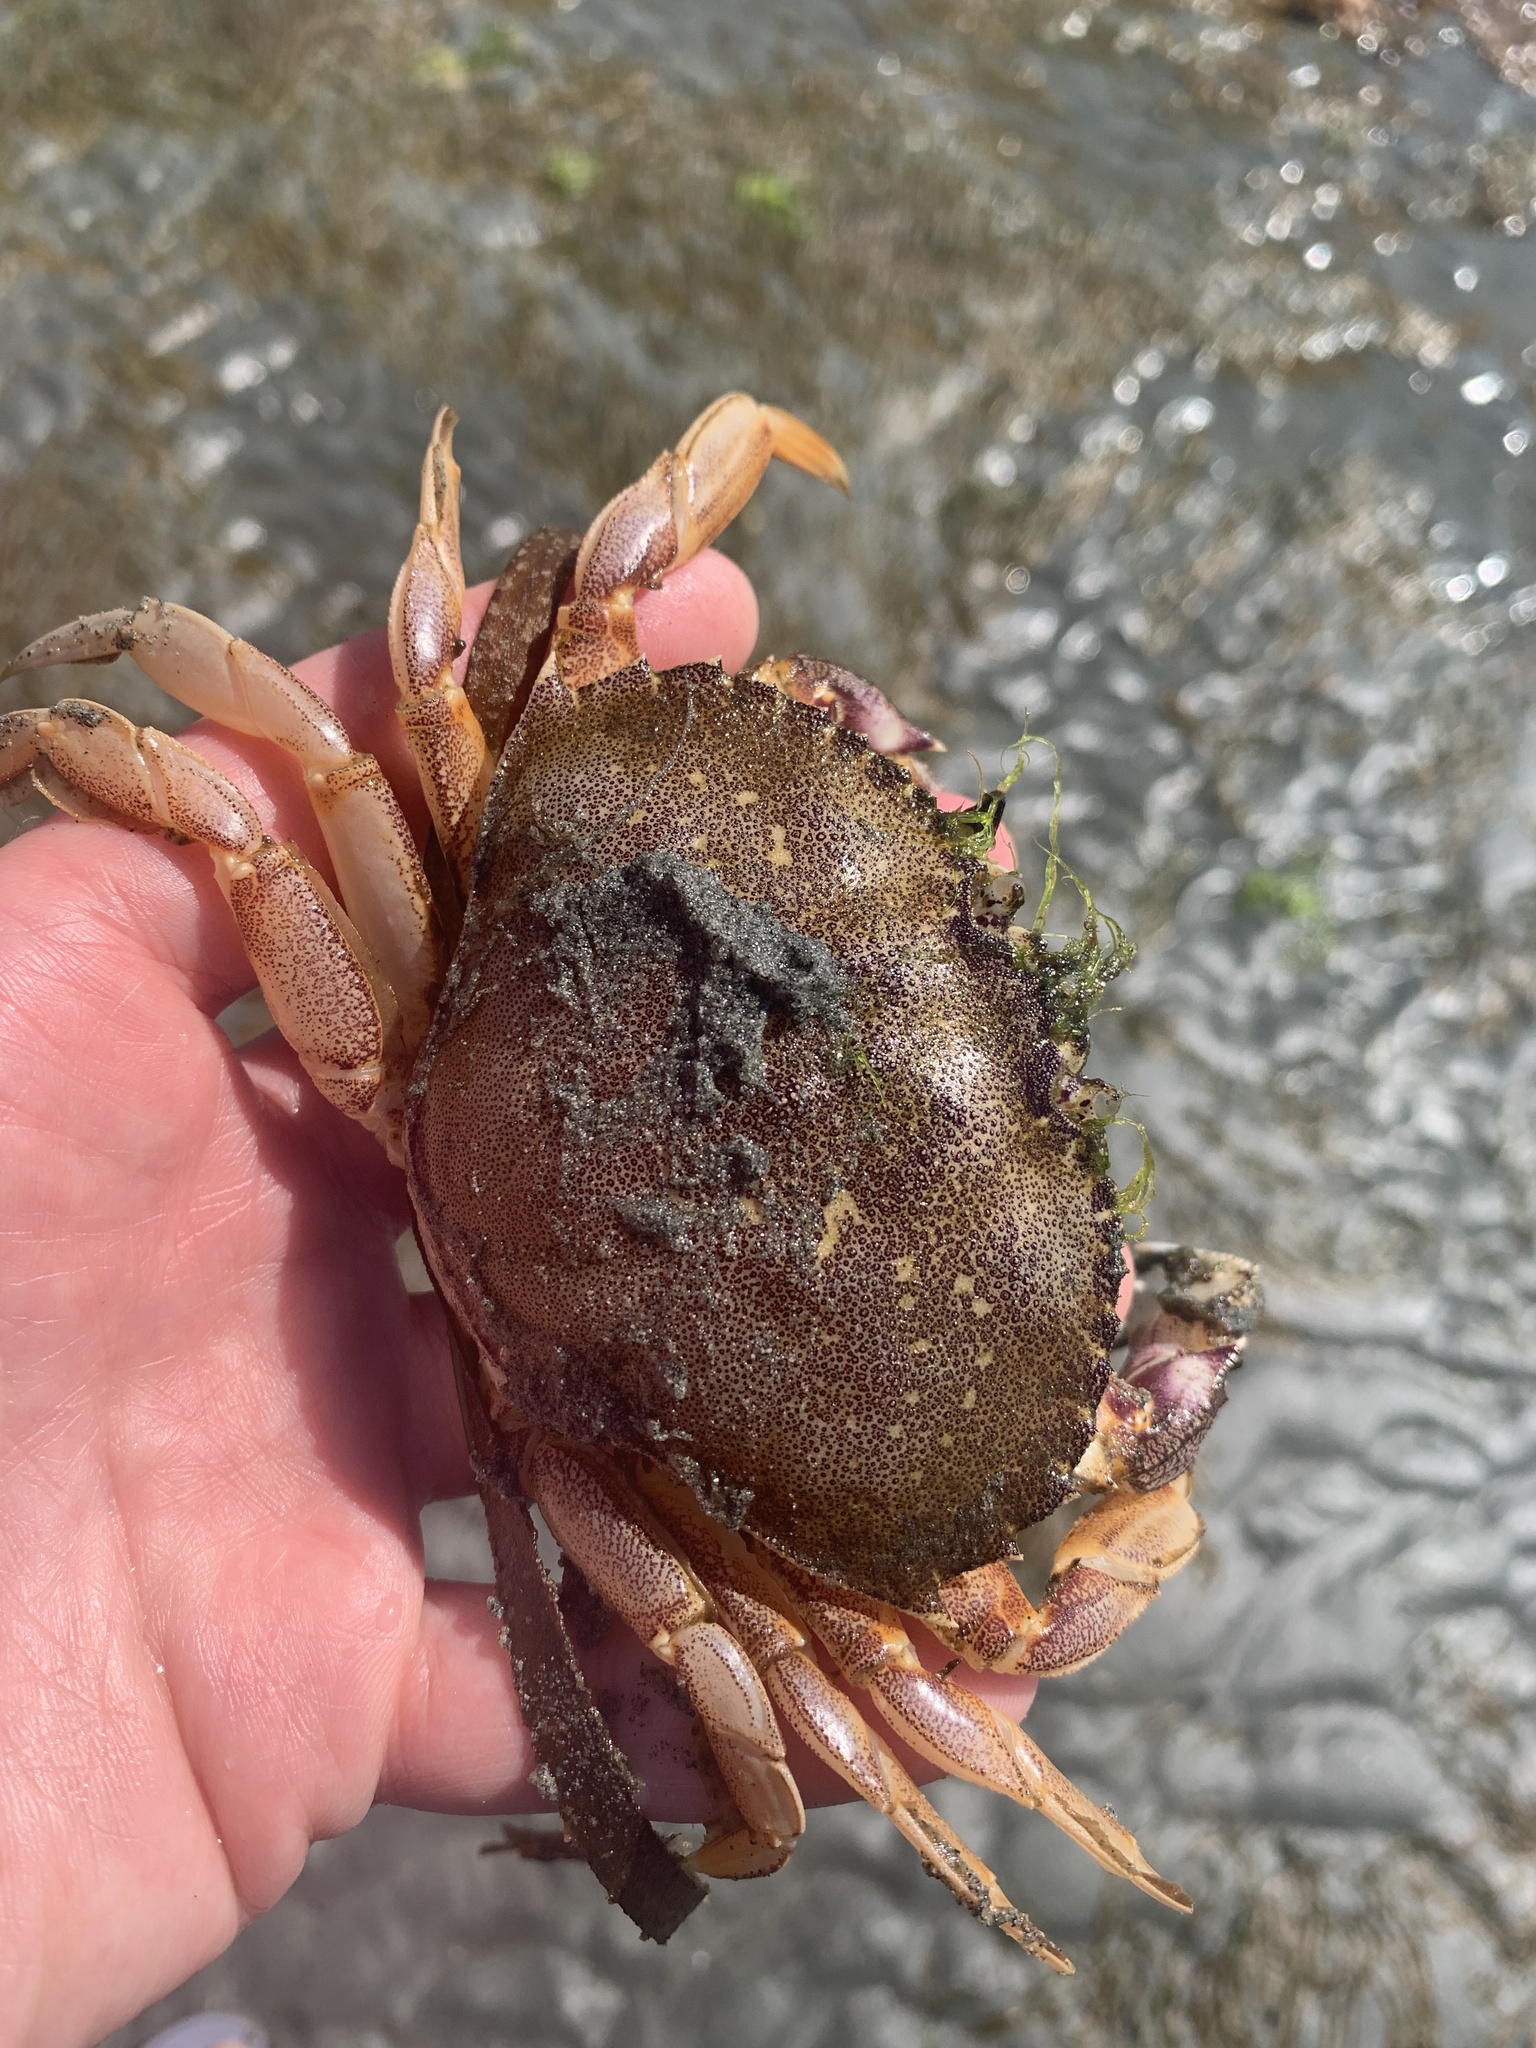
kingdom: Animalia
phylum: Arthropoda
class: Malacostraca
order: Decapoda
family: Cancridae
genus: Metacarcinus
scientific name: Metacarcinus magister
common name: Californian crab
